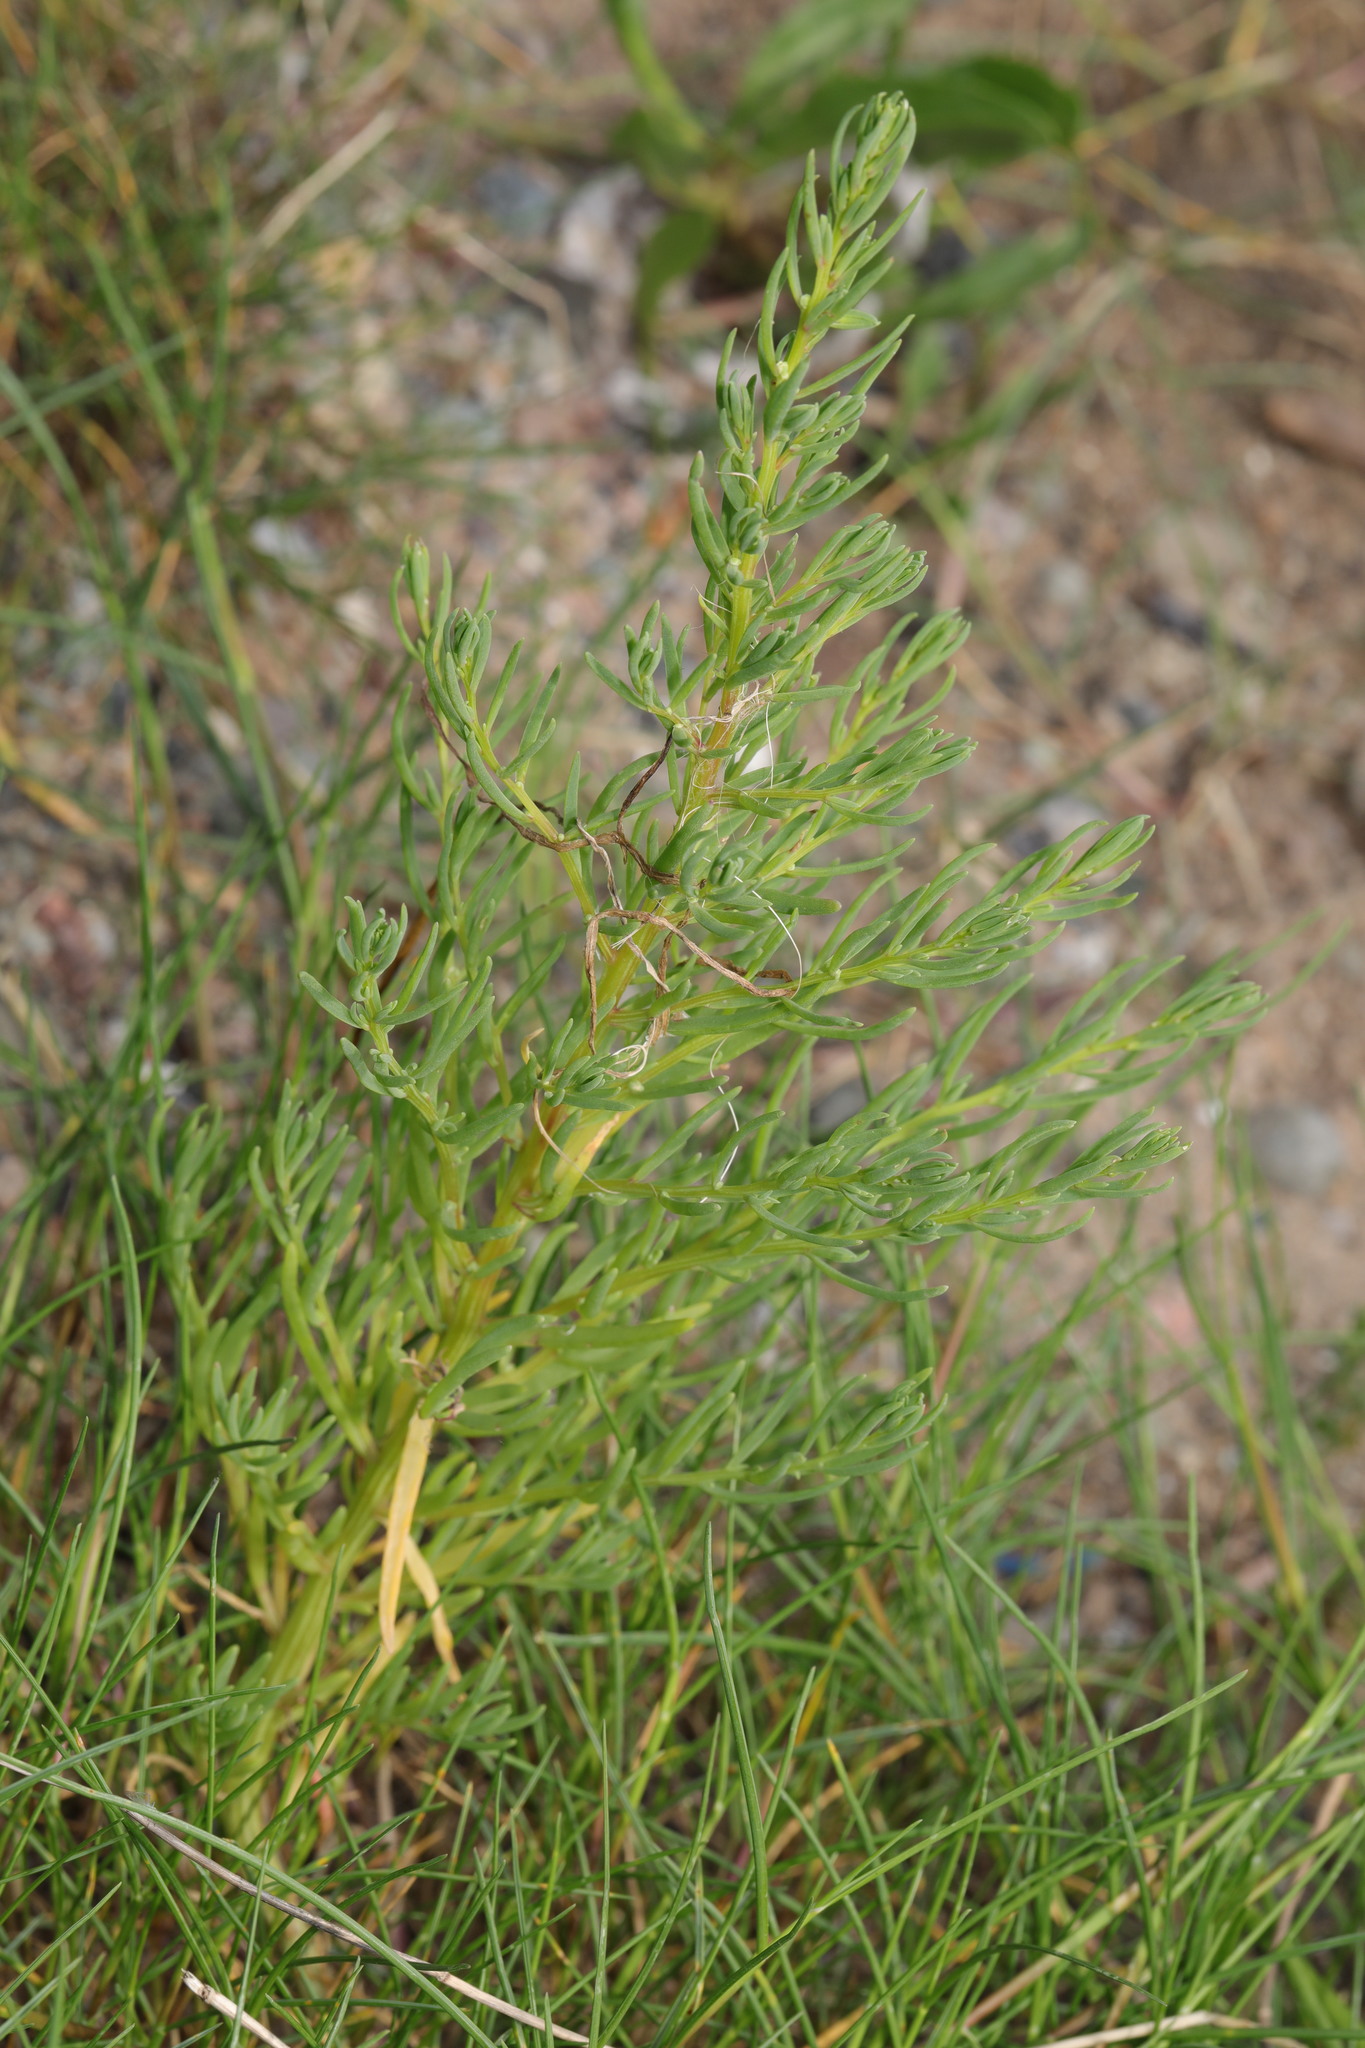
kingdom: Plantae
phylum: Tracheophyta
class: Magnoliopsida
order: Caryophyllales
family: Amaranthaceae
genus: Suaeda
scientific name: Suaeda maritima
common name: Annual sea-blite
